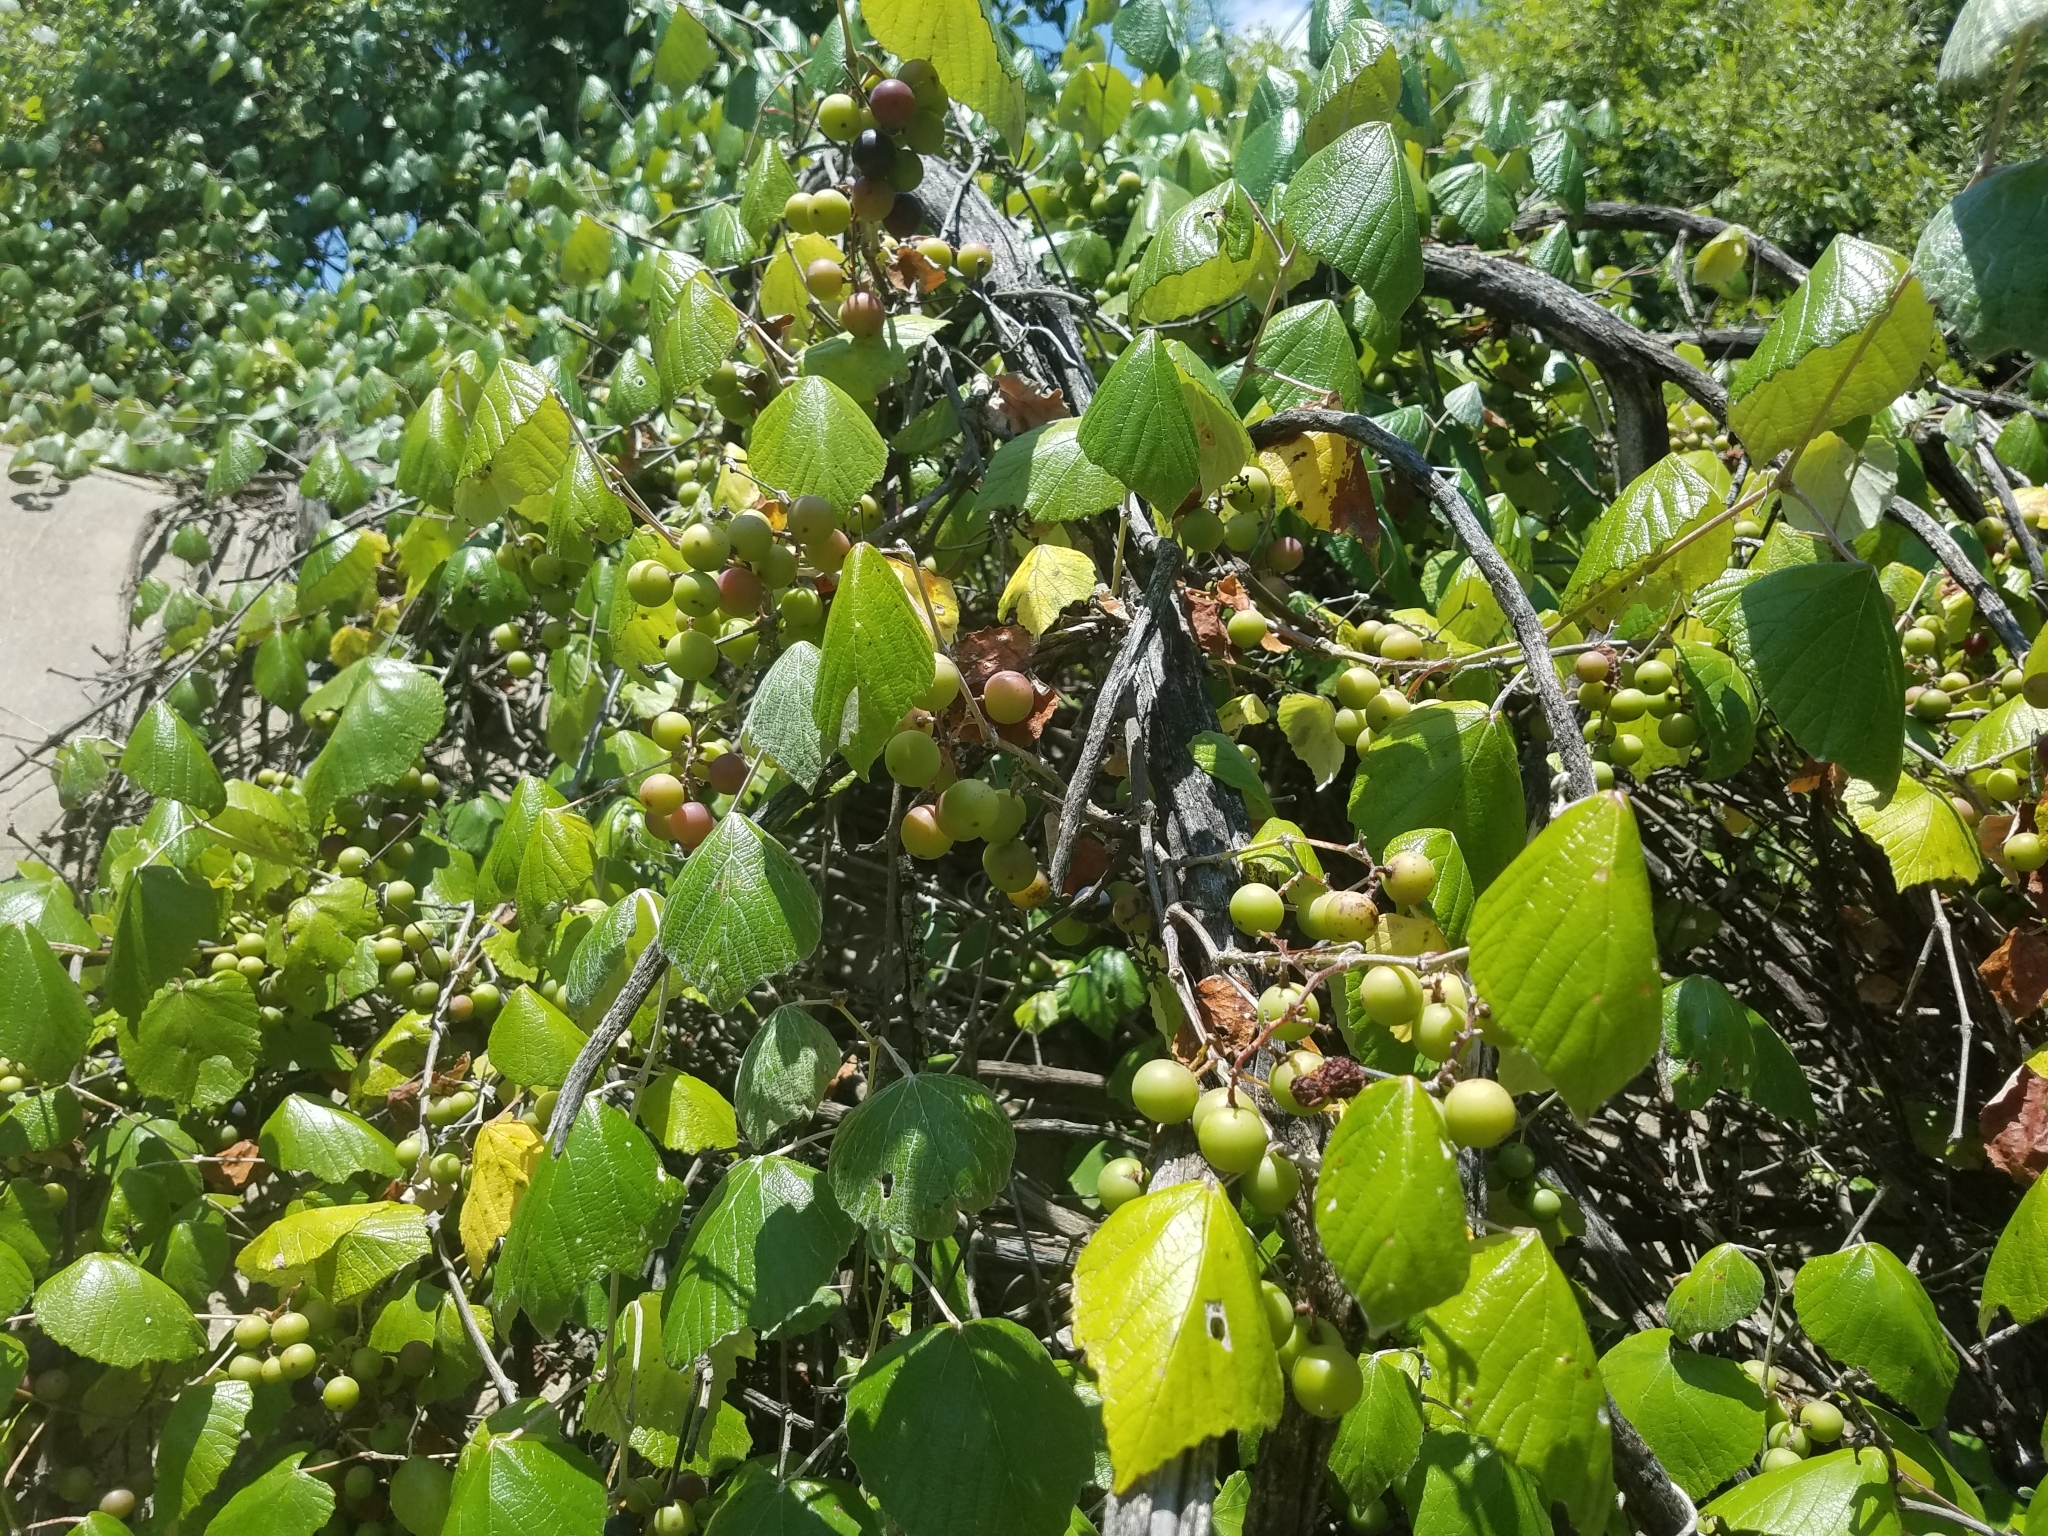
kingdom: Plantae
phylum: Tracheophyta
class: Magnoliopsida
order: Vitales
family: Vitaceae
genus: Vitis
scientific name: Vitis mustangensis
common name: Mustang grape
